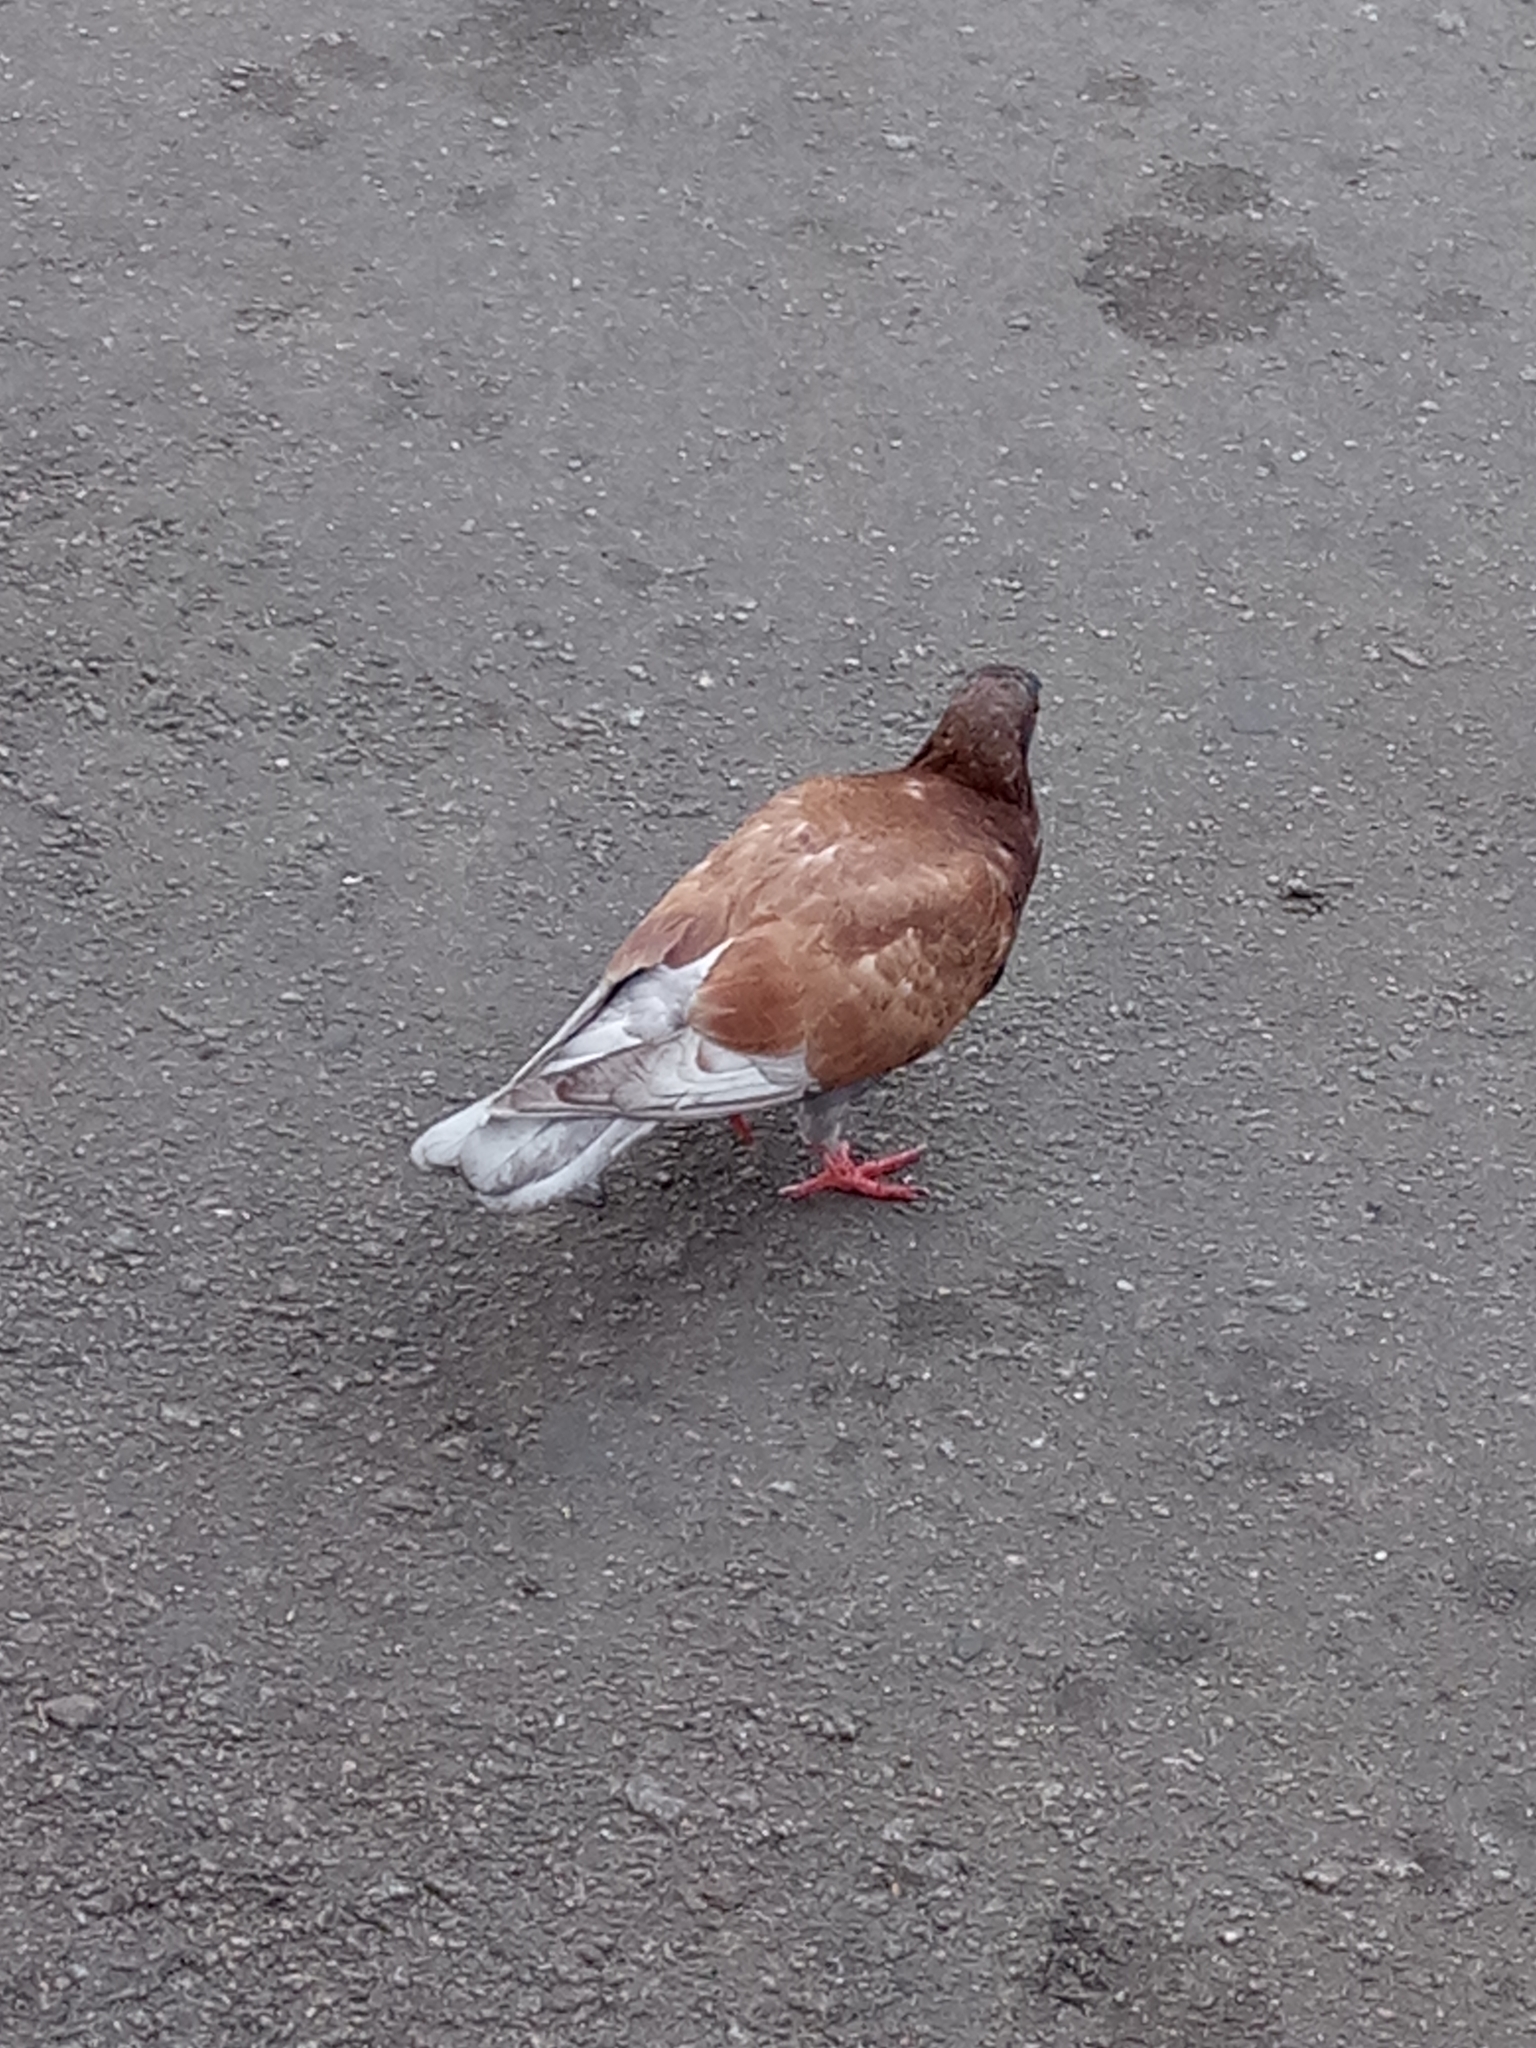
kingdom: Animalia
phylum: Chordata
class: Aves
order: Columbiformes
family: Columbidae
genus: Columba
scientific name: Columba livia
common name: Rock pigeon
